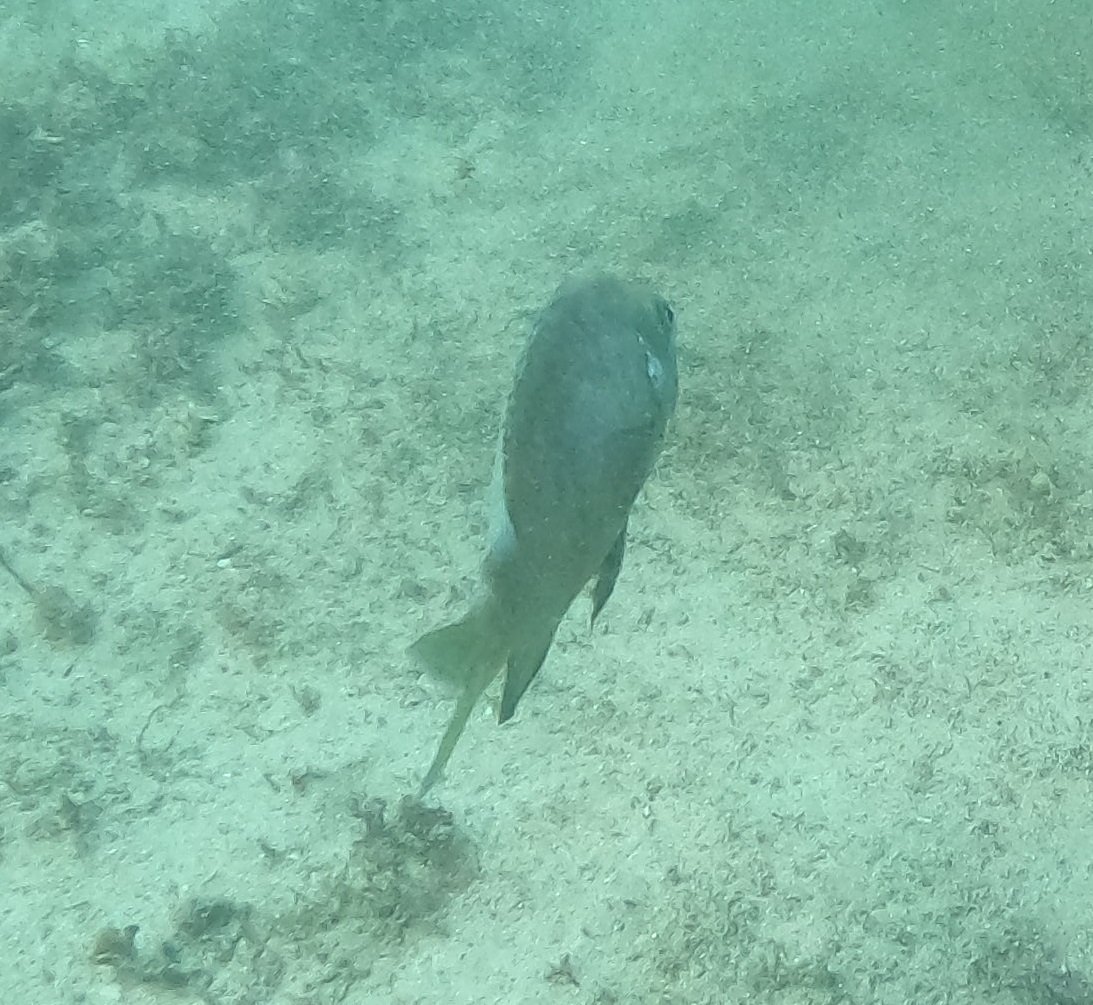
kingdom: Animalia
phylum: Chordata
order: Perciformes
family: Pomacentridae
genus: Parma
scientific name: Parma microlepis
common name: White-ear
